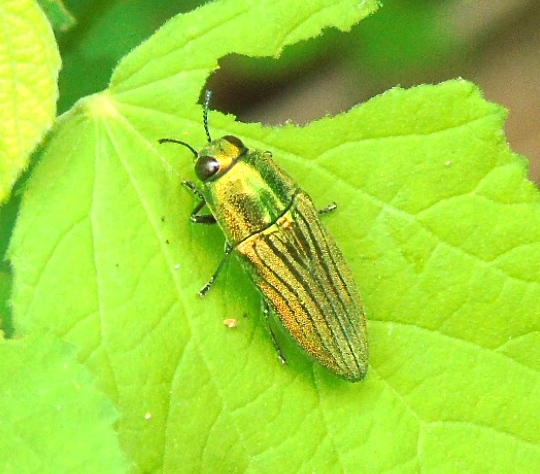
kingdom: Animalia
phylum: Arthropoda
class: Insecta
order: Coleoptera
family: Buprestidae
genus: Agaeocera
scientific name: Agaeocera scintillans
